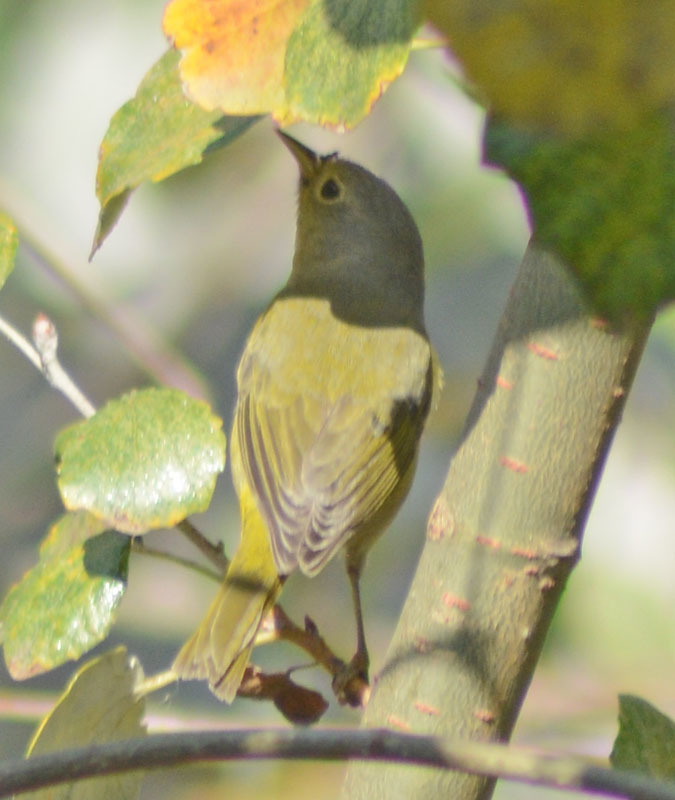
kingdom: Animalia
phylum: Chordata
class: Aves
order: Passeriformes
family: Parulidae
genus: Leiothlypis
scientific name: Leiothlypis ruficapilla
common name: Nashville warbler
